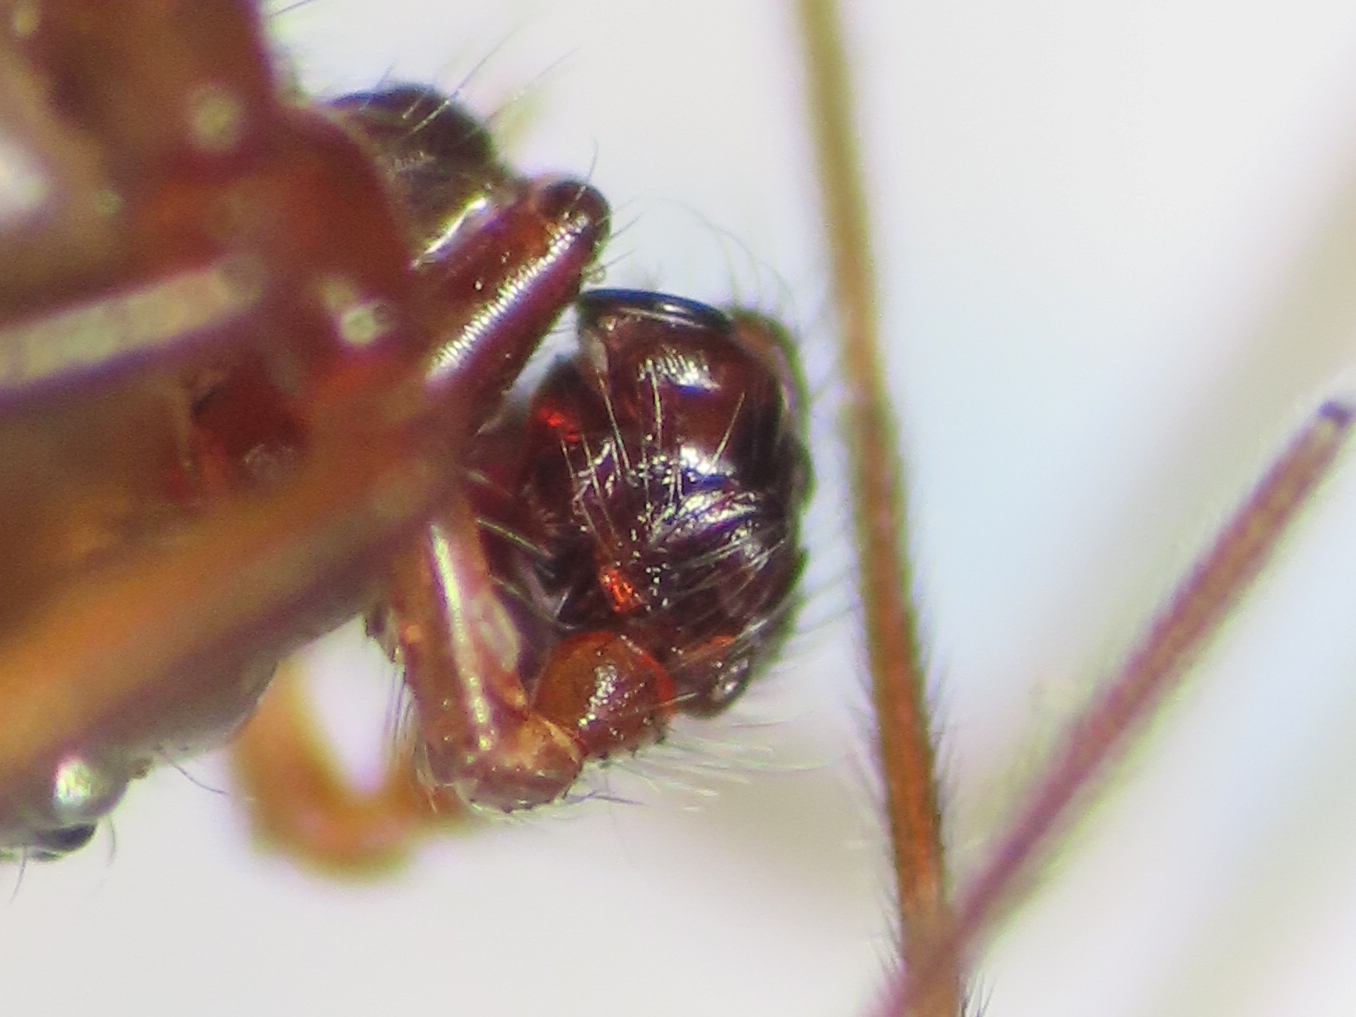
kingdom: Animalia
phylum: Arthropoda
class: Arachnida
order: Araneae
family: Linyphiidae
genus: Bathyphantes
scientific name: Bathyphantes similis
